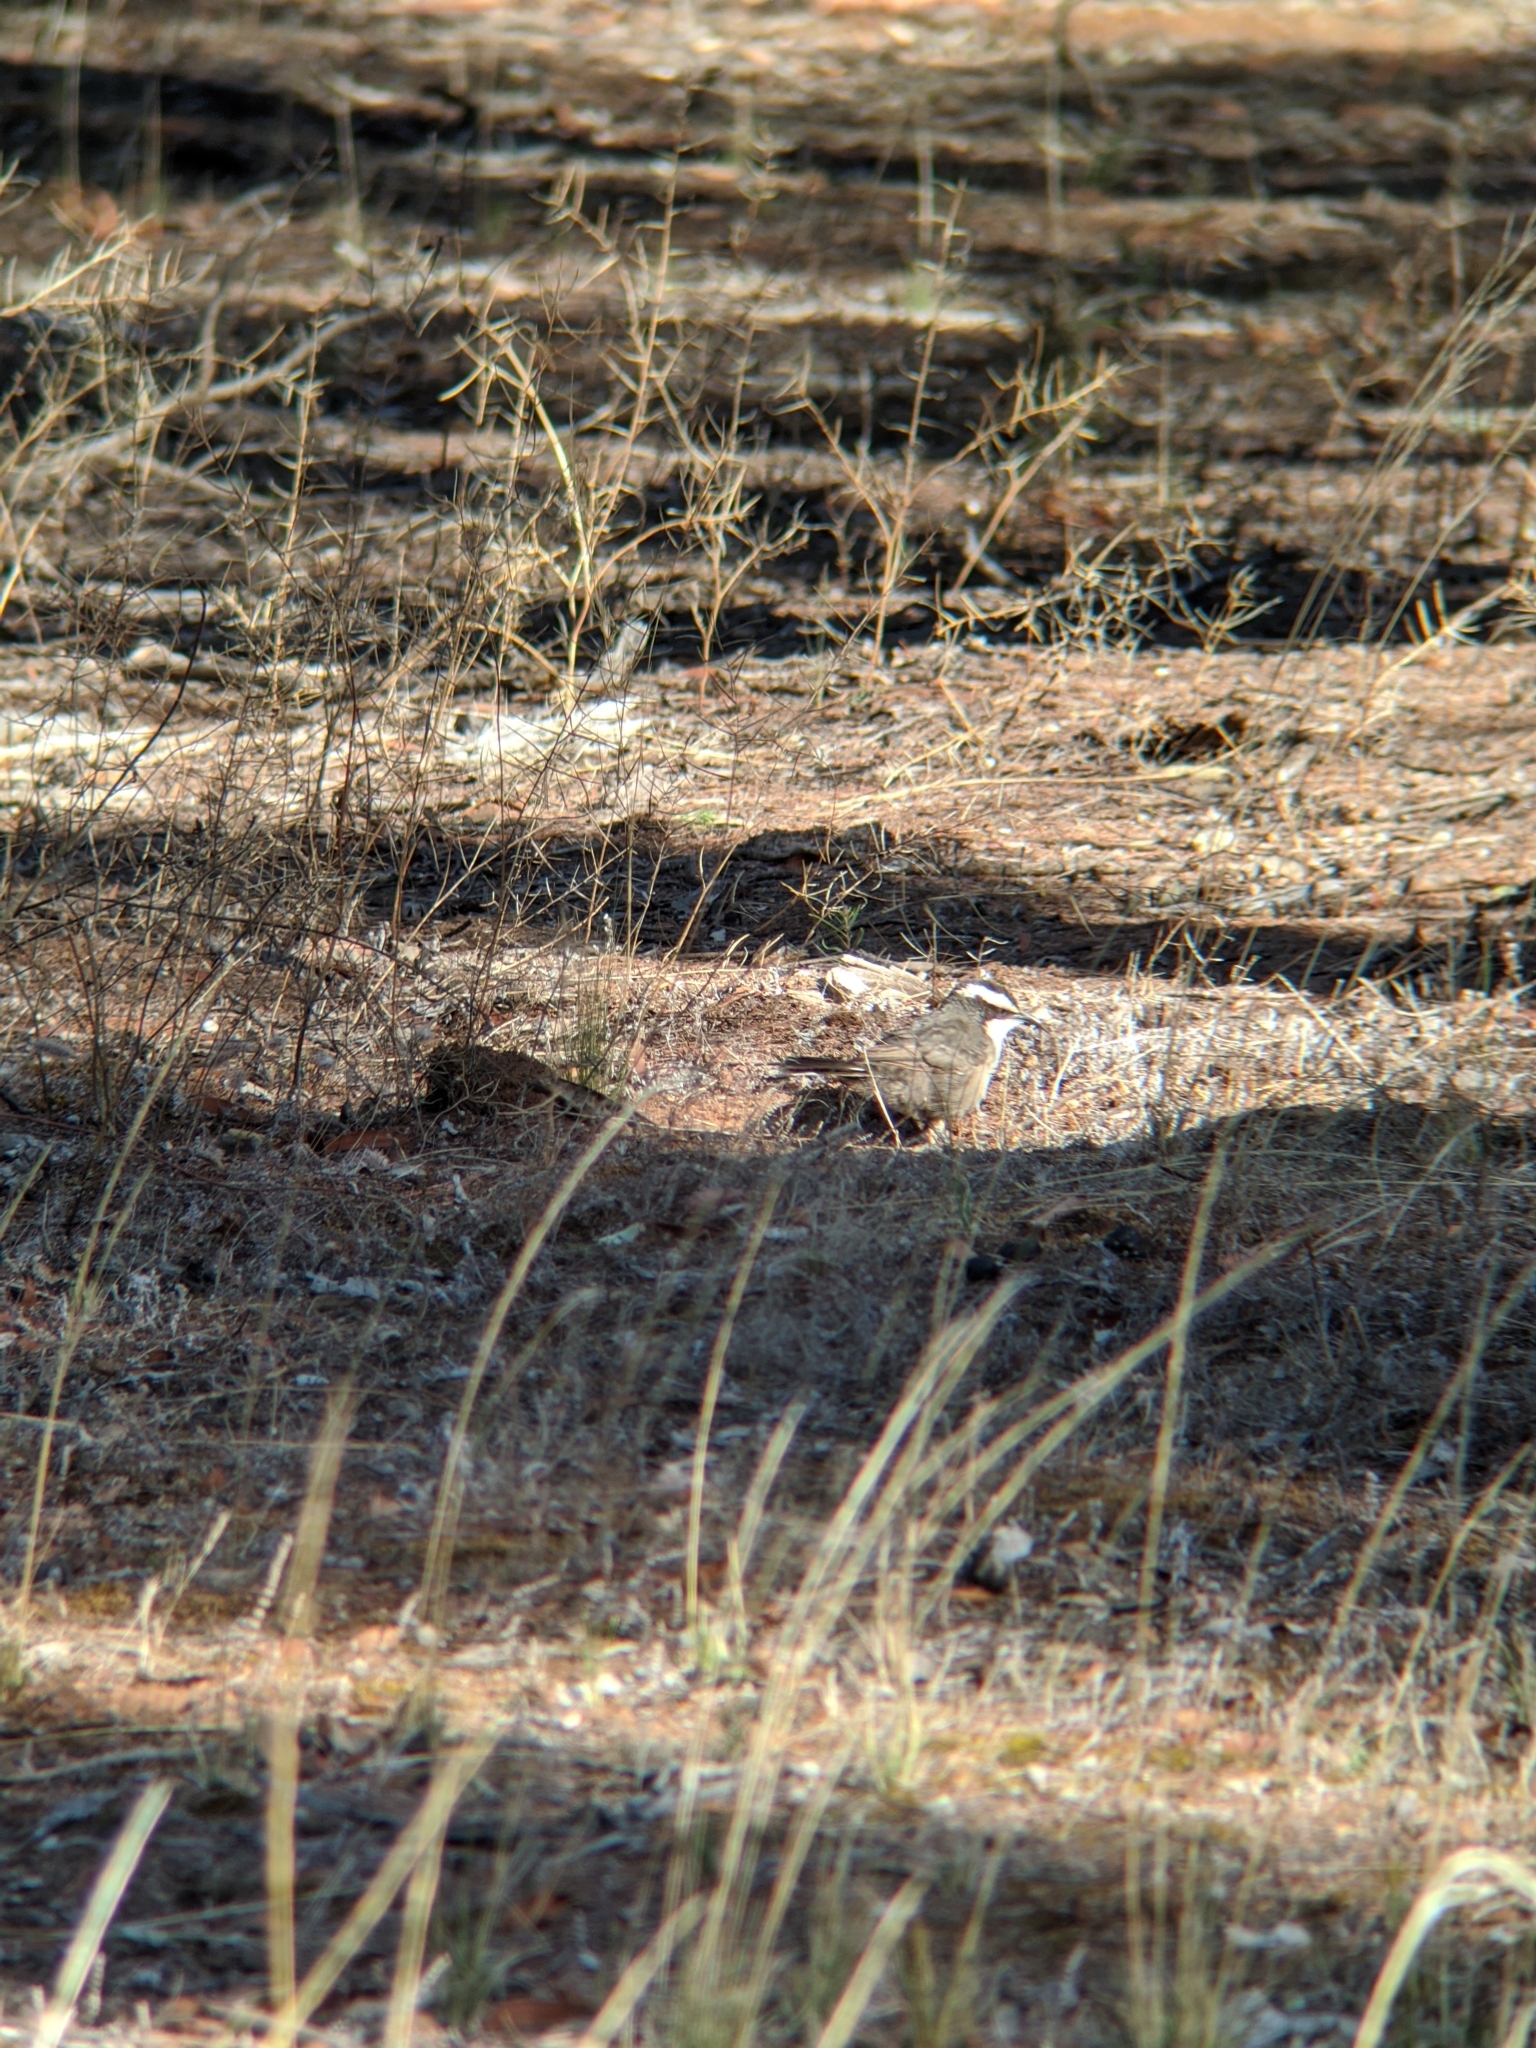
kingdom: Animalia
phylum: Chordata
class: Aves
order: Passeriformes
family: Pomatostomidae
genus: Pomatostomus
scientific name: Pomatostomus superciliosus
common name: White-browed babbler
